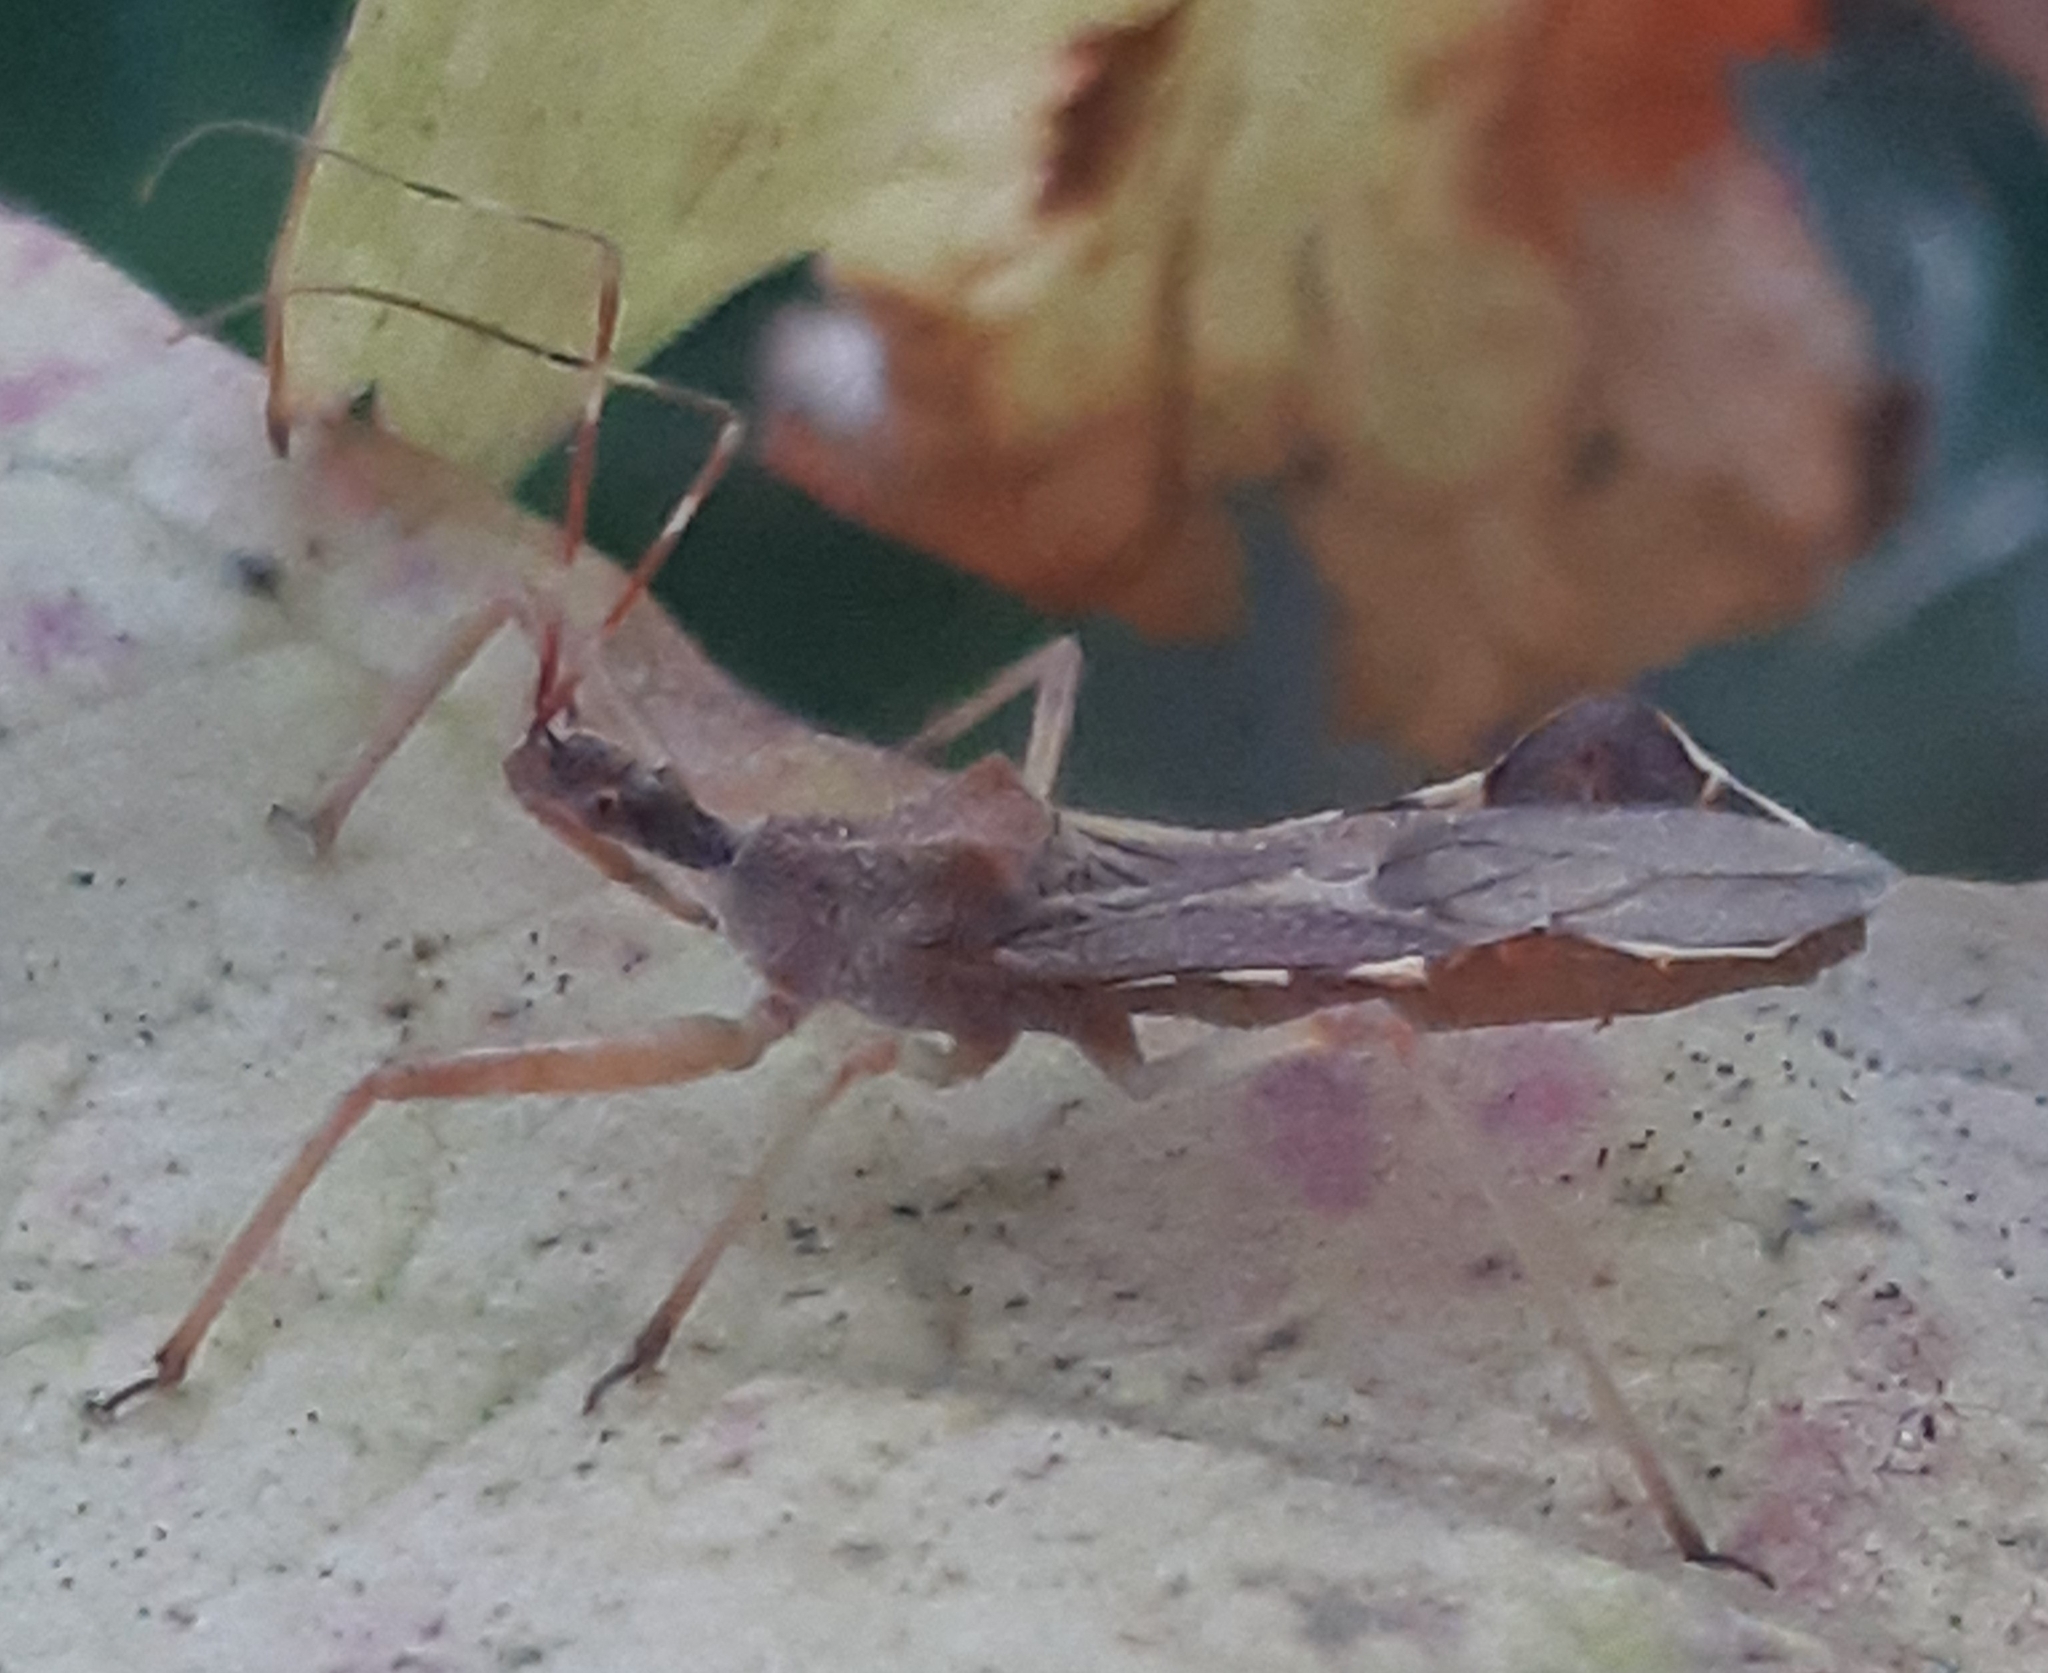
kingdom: Animalia
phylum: Arthropoda
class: Insecta
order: Hemiptera
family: Reduviidae
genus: Nagusta
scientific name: Nagusta goedelii
